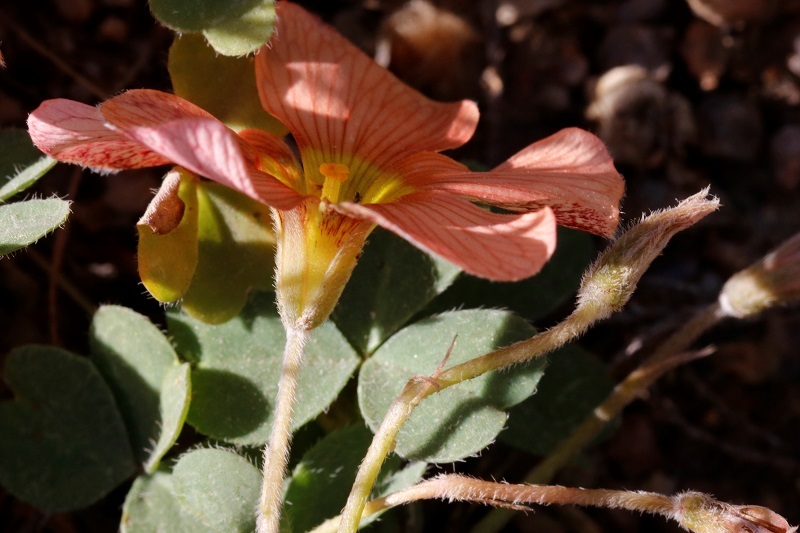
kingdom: Plantae
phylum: Tracheophyta
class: Magnoliopsida
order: Oxalidales
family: Oxalidaceae
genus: Oxalis
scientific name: Oxalis obtusa
